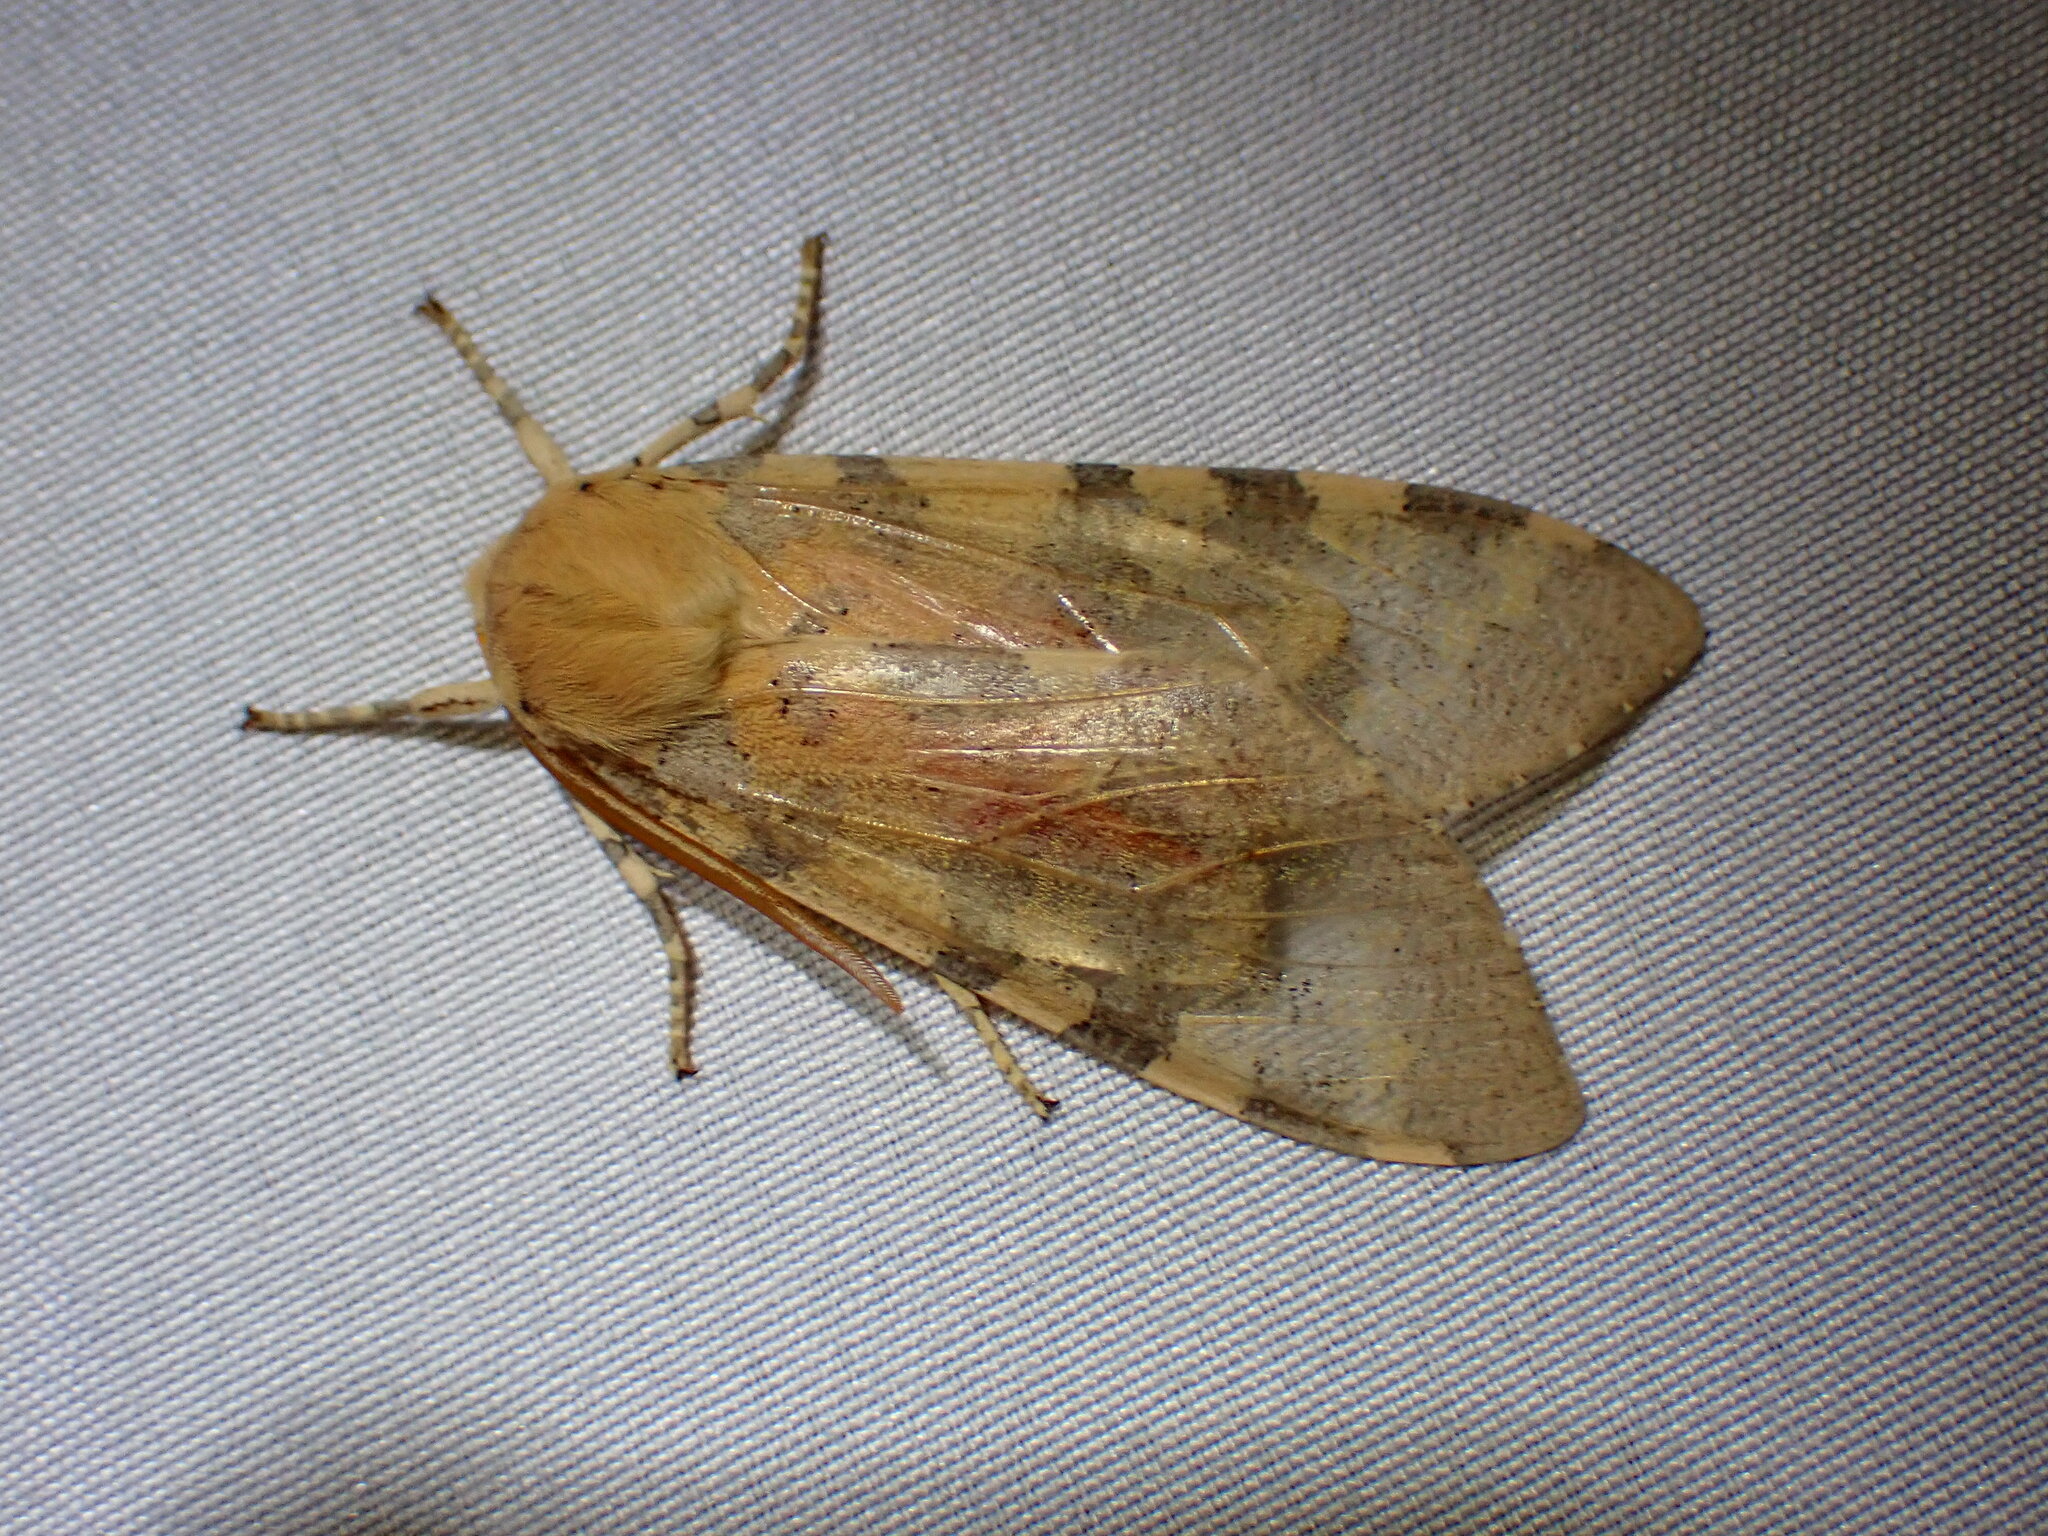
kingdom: Animalia
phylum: Arthropoda
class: Insecta
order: Lepidoptera
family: Erebidae
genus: Hemihyalea
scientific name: Hemihyalea edwardsii
